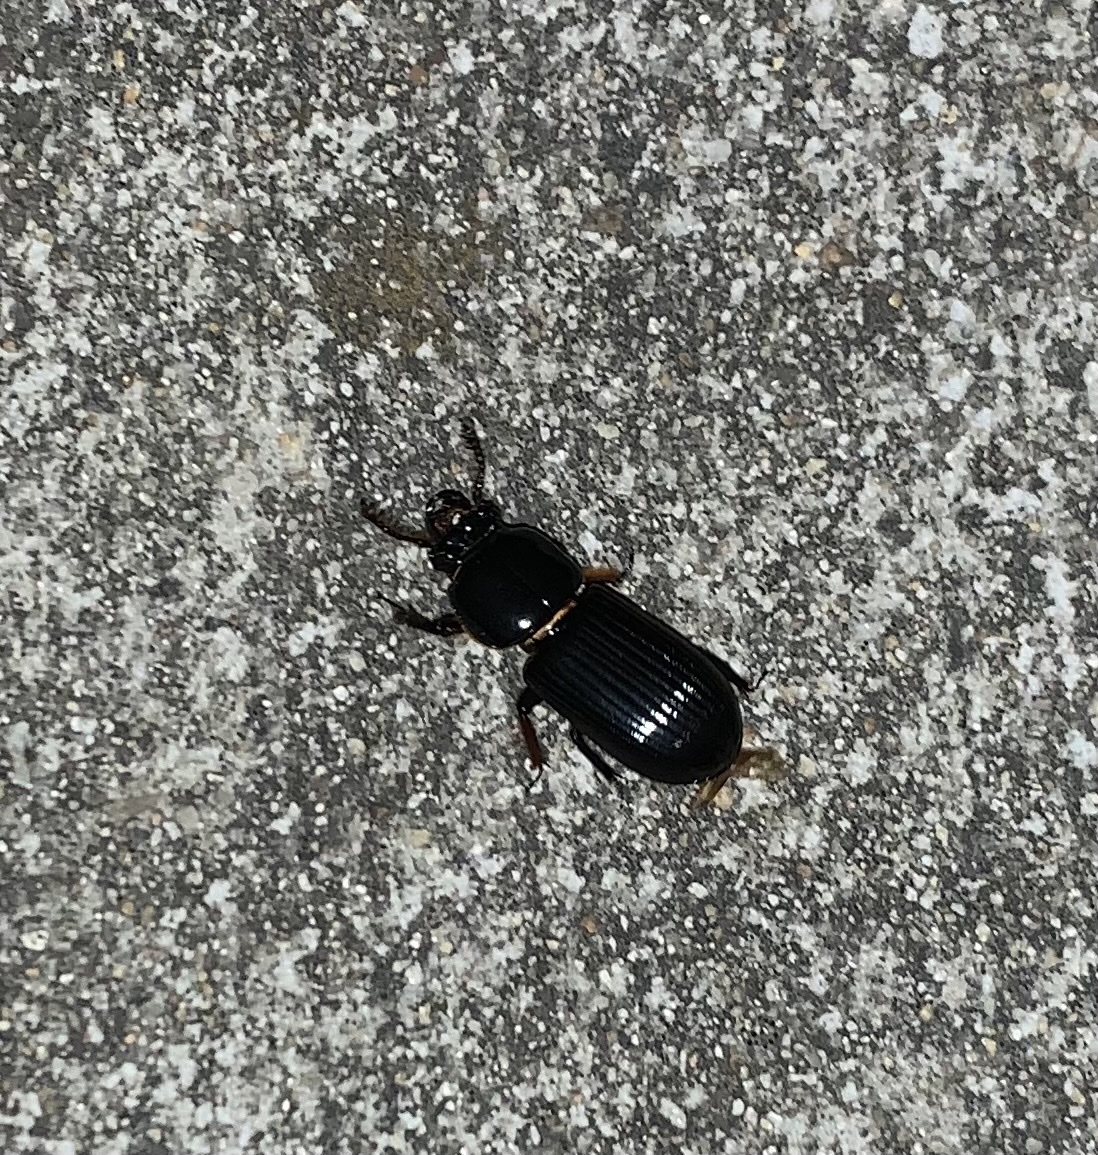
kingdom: Animalia
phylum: Arthropoda
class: Insecta
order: Coleoptera
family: Passalidae
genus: Odontotaenius
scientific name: Odontotaenius disjunctus
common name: Patent leather beetle
